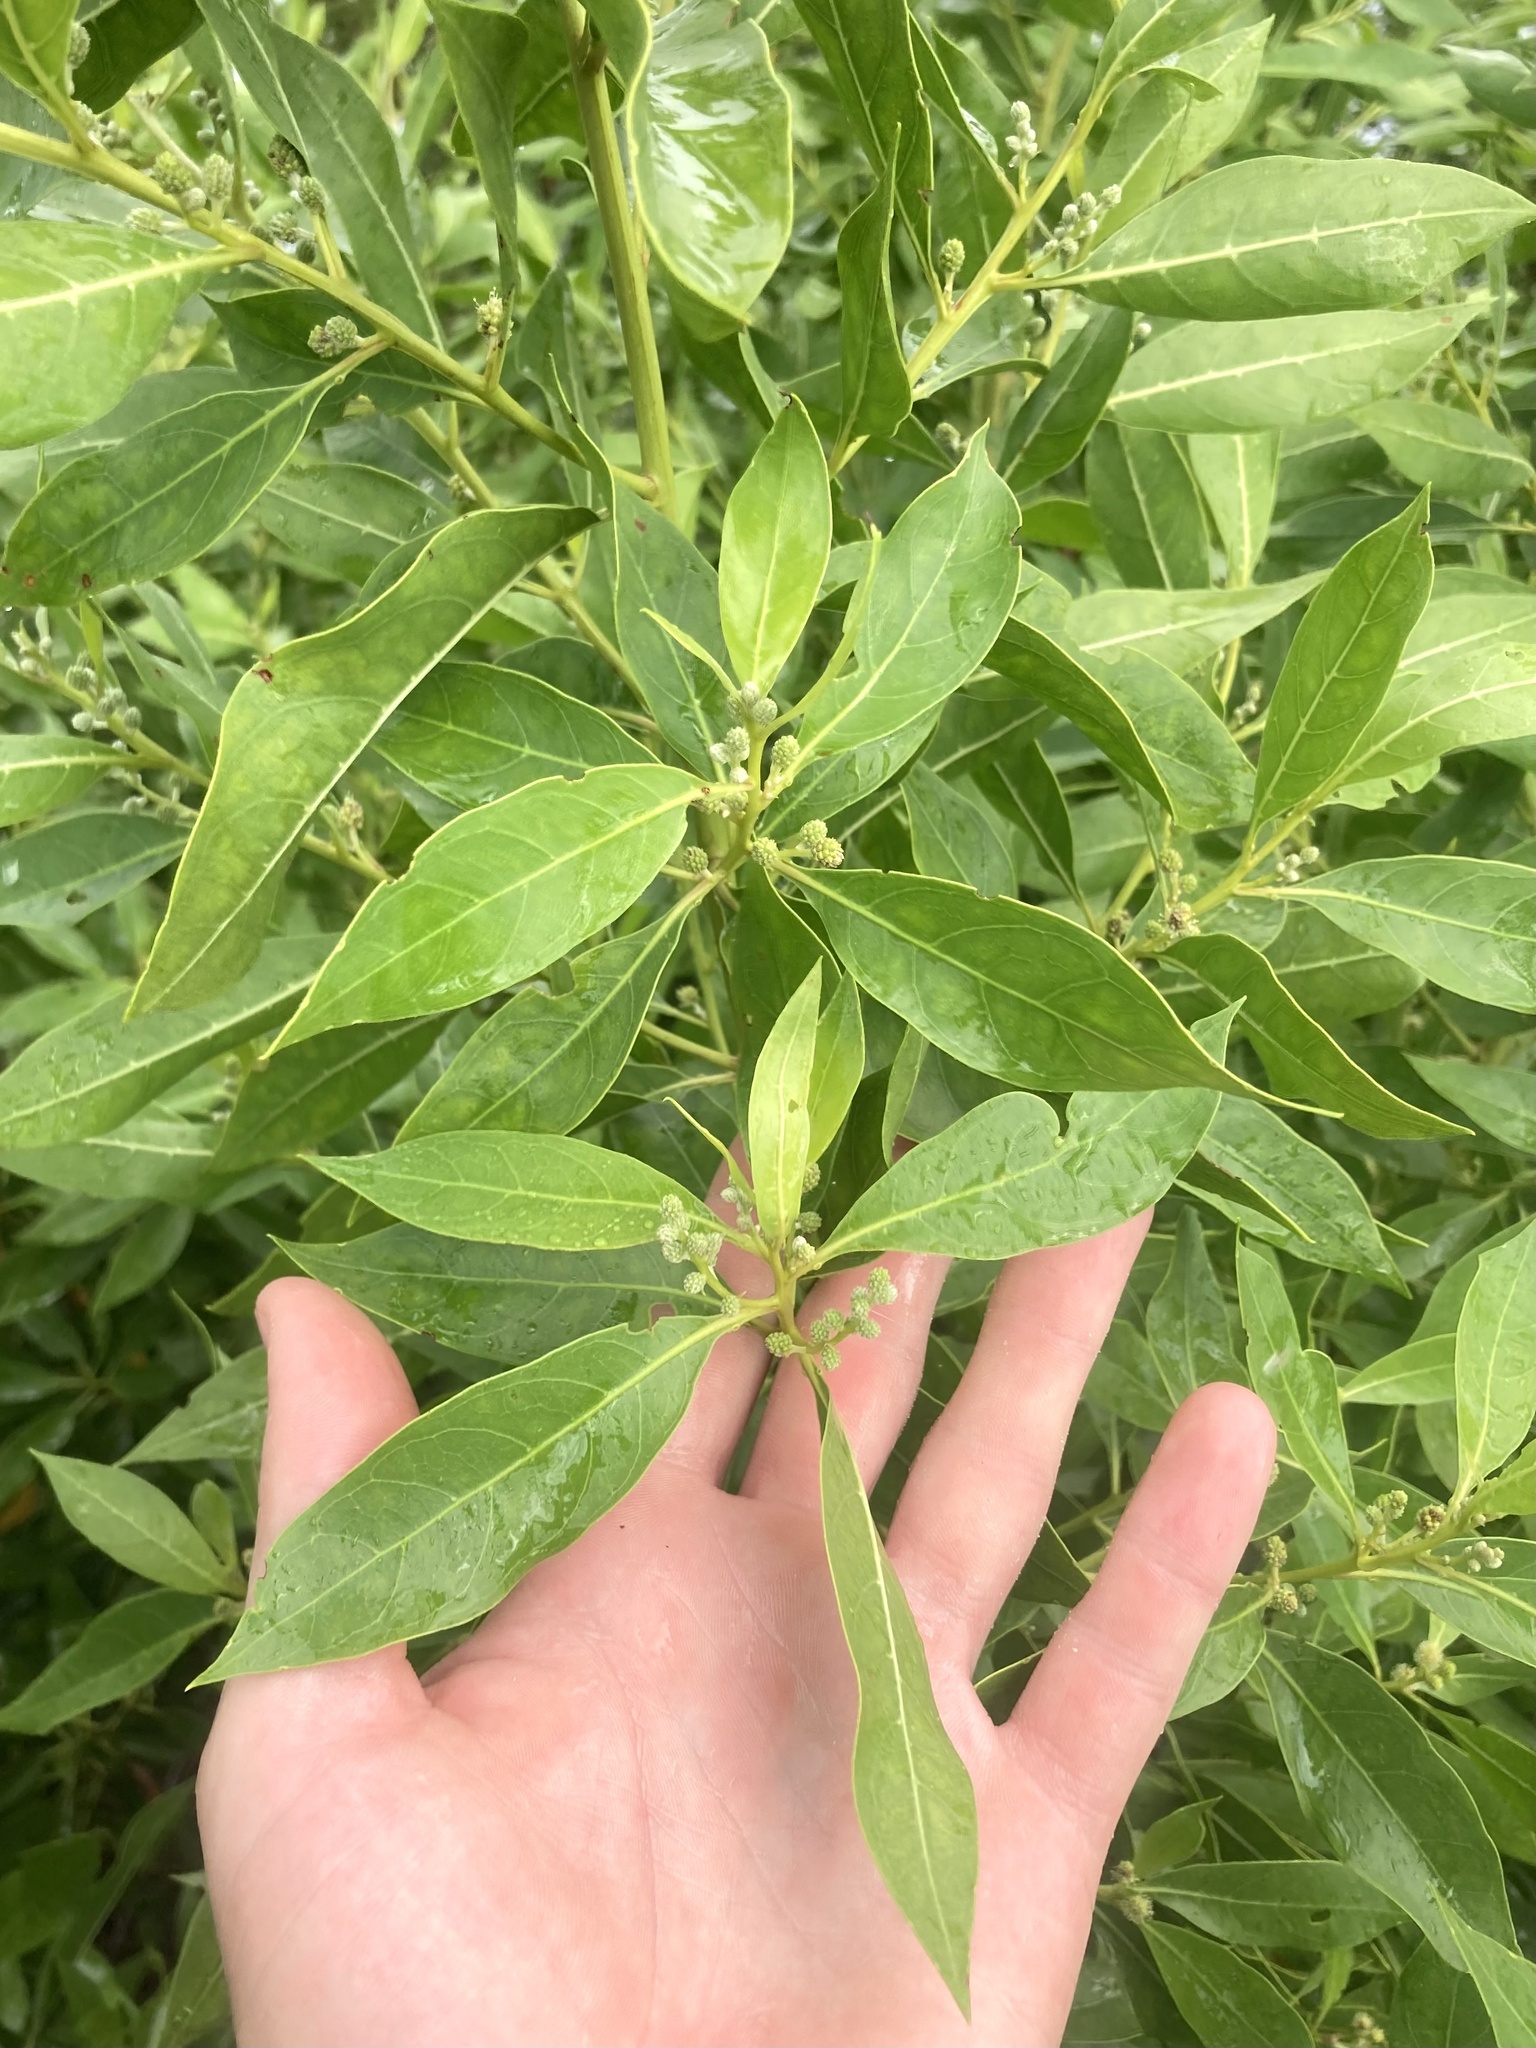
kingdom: Plantae
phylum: Tracheophyta
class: Magnoliopsida
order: Myrtales
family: Combretaceae
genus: Conocarpus
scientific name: Conocarpus erectus
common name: Button mangrove
